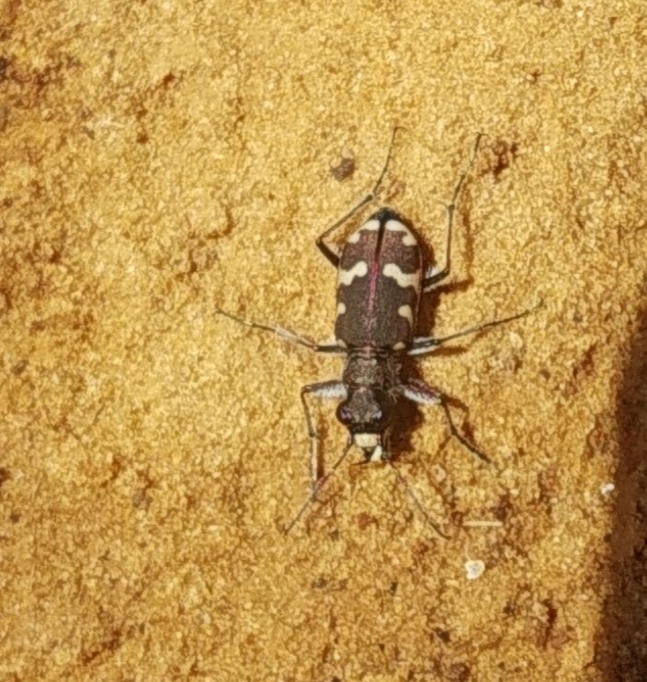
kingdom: Animalia
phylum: Arthropoda
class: Insecta
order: Coleoptera
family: Carabidae
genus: Cicindela
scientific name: Cicindela hybrida
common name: Northern dune tiger beetle
